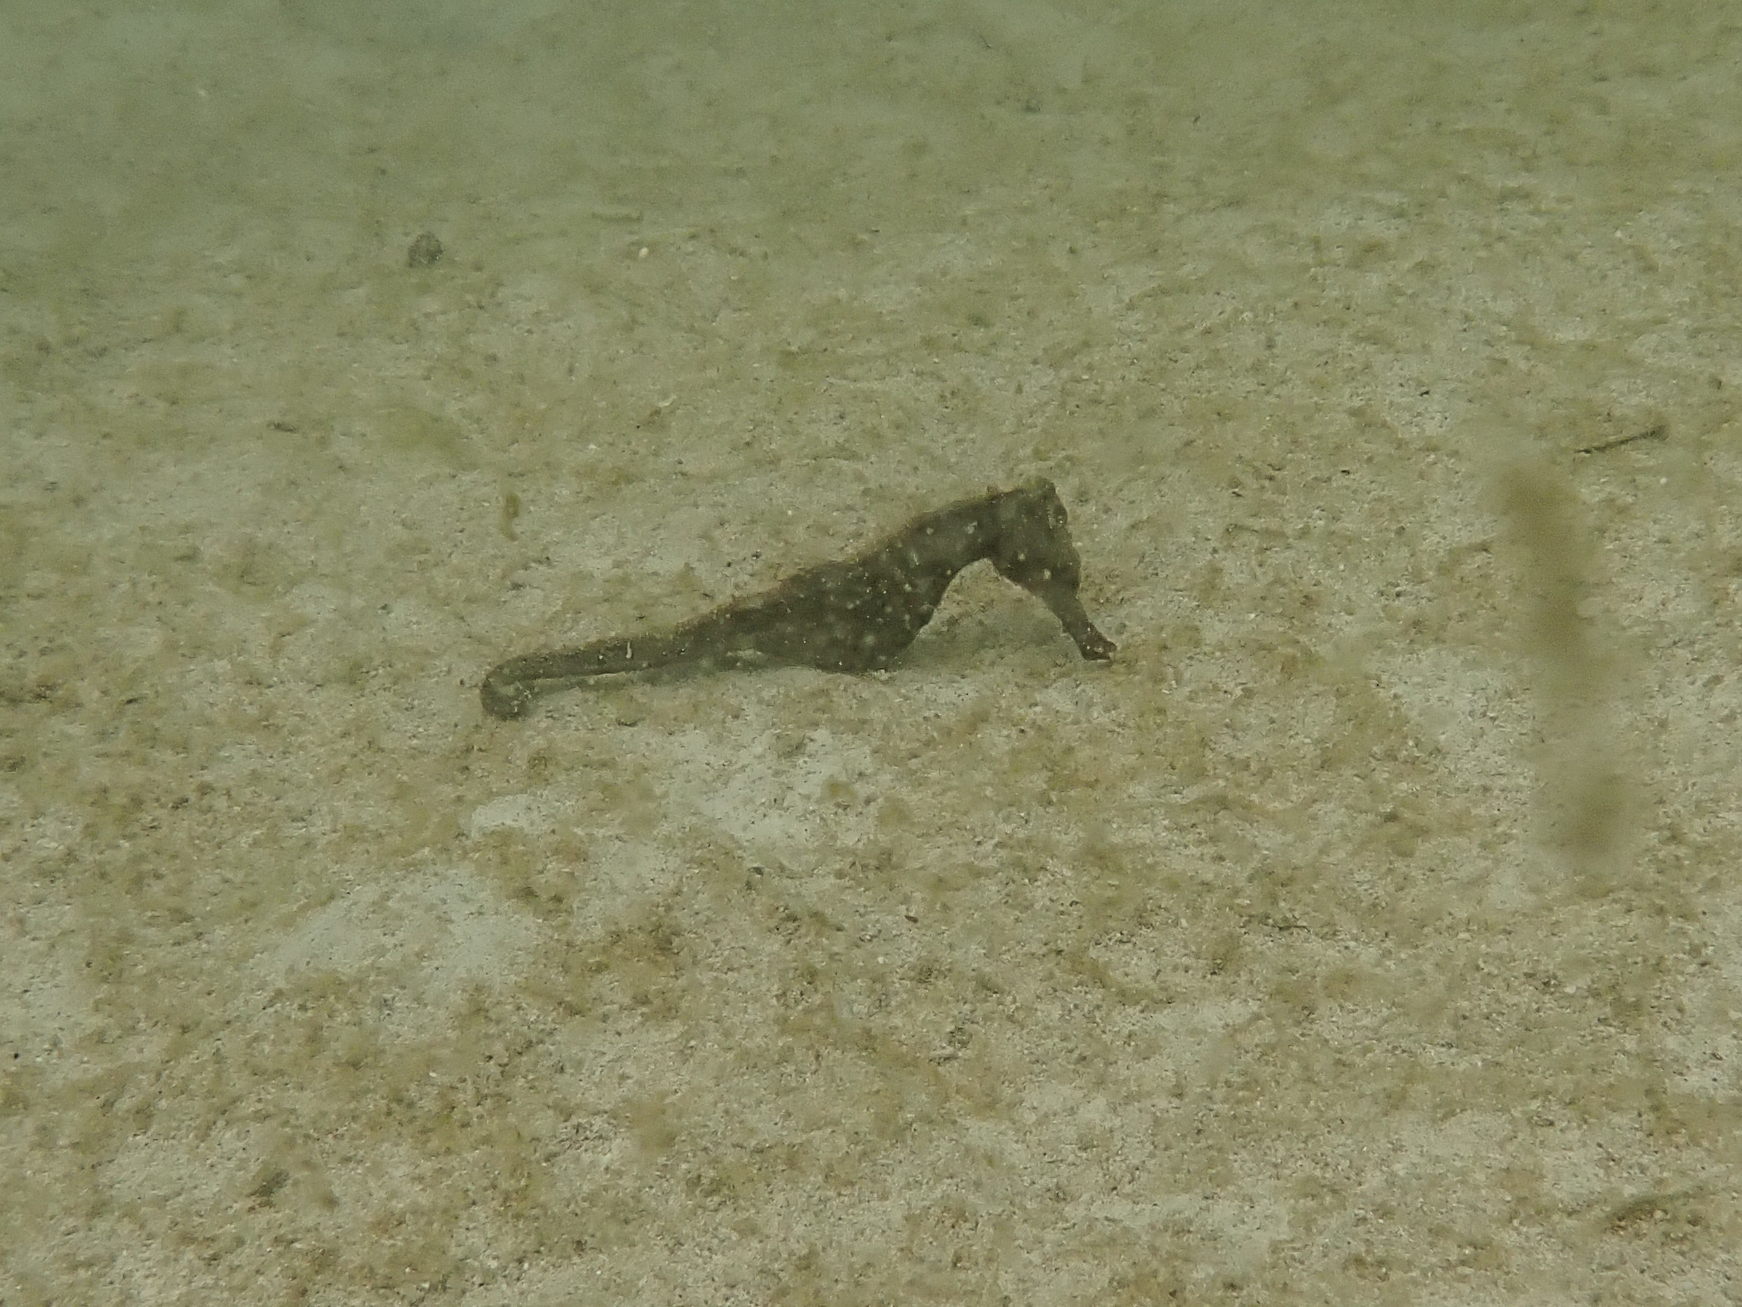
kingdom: Animalia
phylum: Chordata
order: Syngnathiformes
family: Syngnathidae
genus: Hippocampus
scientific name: Hippocampus kuda
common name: Spotted seahorse
